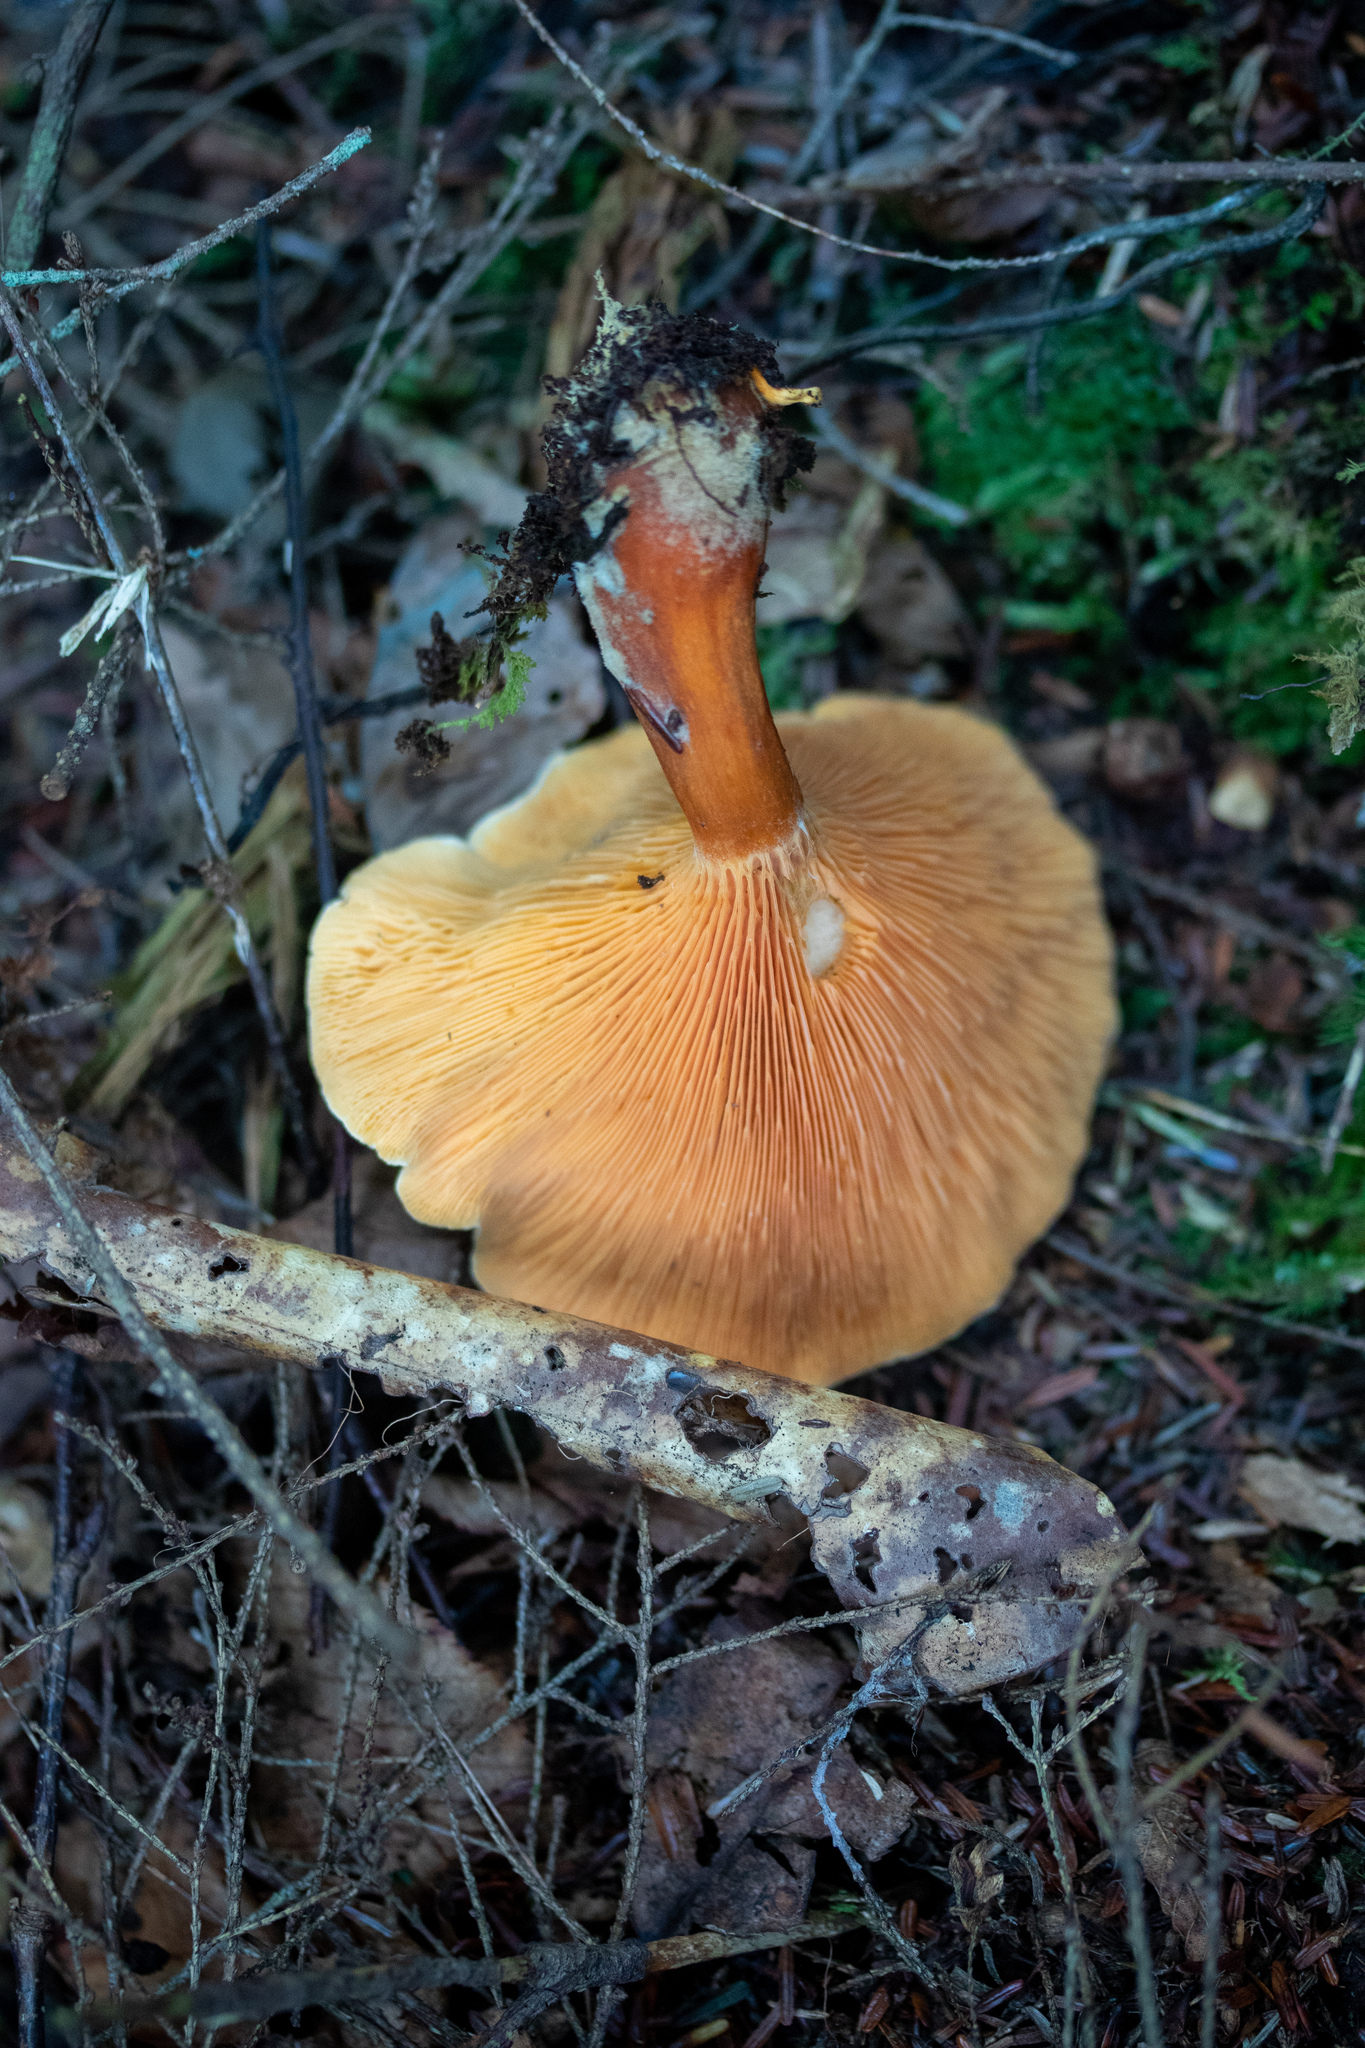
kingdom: Fungi
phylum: Basidiomycota
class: Agaricomycetes
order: Boletales
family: Hygrophoropsidaceae
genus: Hygrophoropsis
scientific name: Hygrophoropsis aurantiaca
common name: False chanterelle
